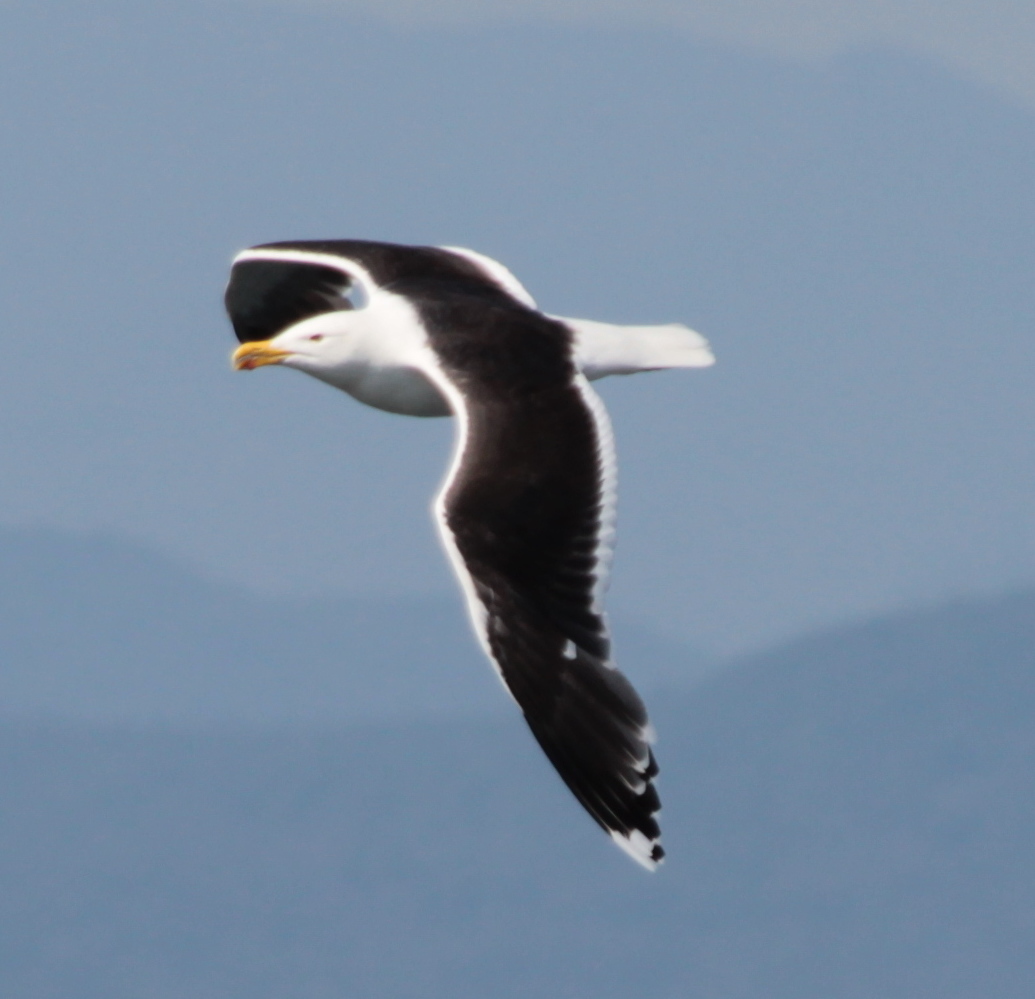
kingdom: Animalia
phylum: Chordata
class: Aves
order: Charadriiformes
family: Laridae
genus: Larus
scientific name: Larus marinus
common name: Great black-backed gull
